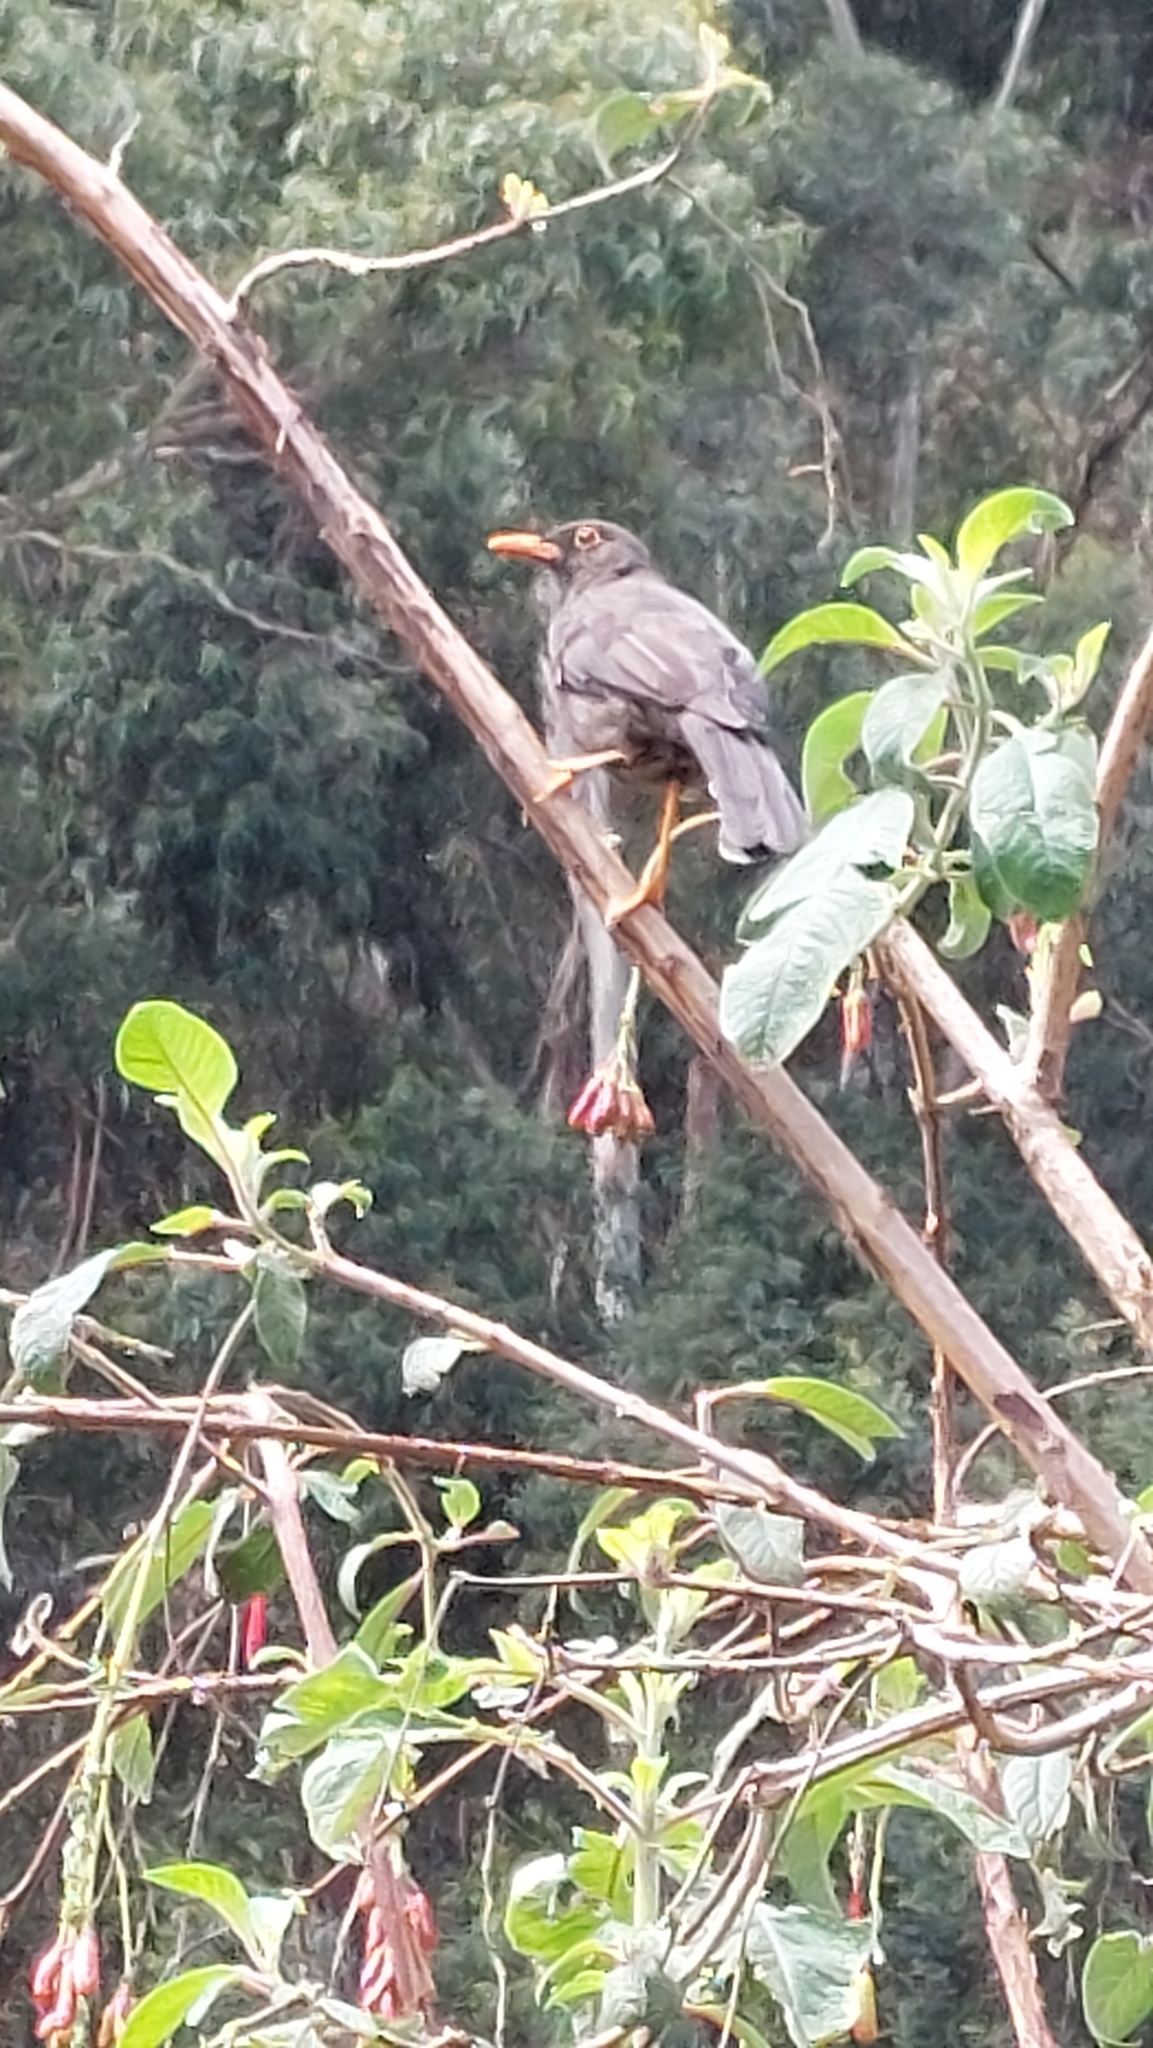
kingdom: Animalia
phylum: Chordata
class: Aves
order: Passeriformes
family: Turdidae
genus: Turdus
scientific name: Turdus fuscater
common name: Great thrush
